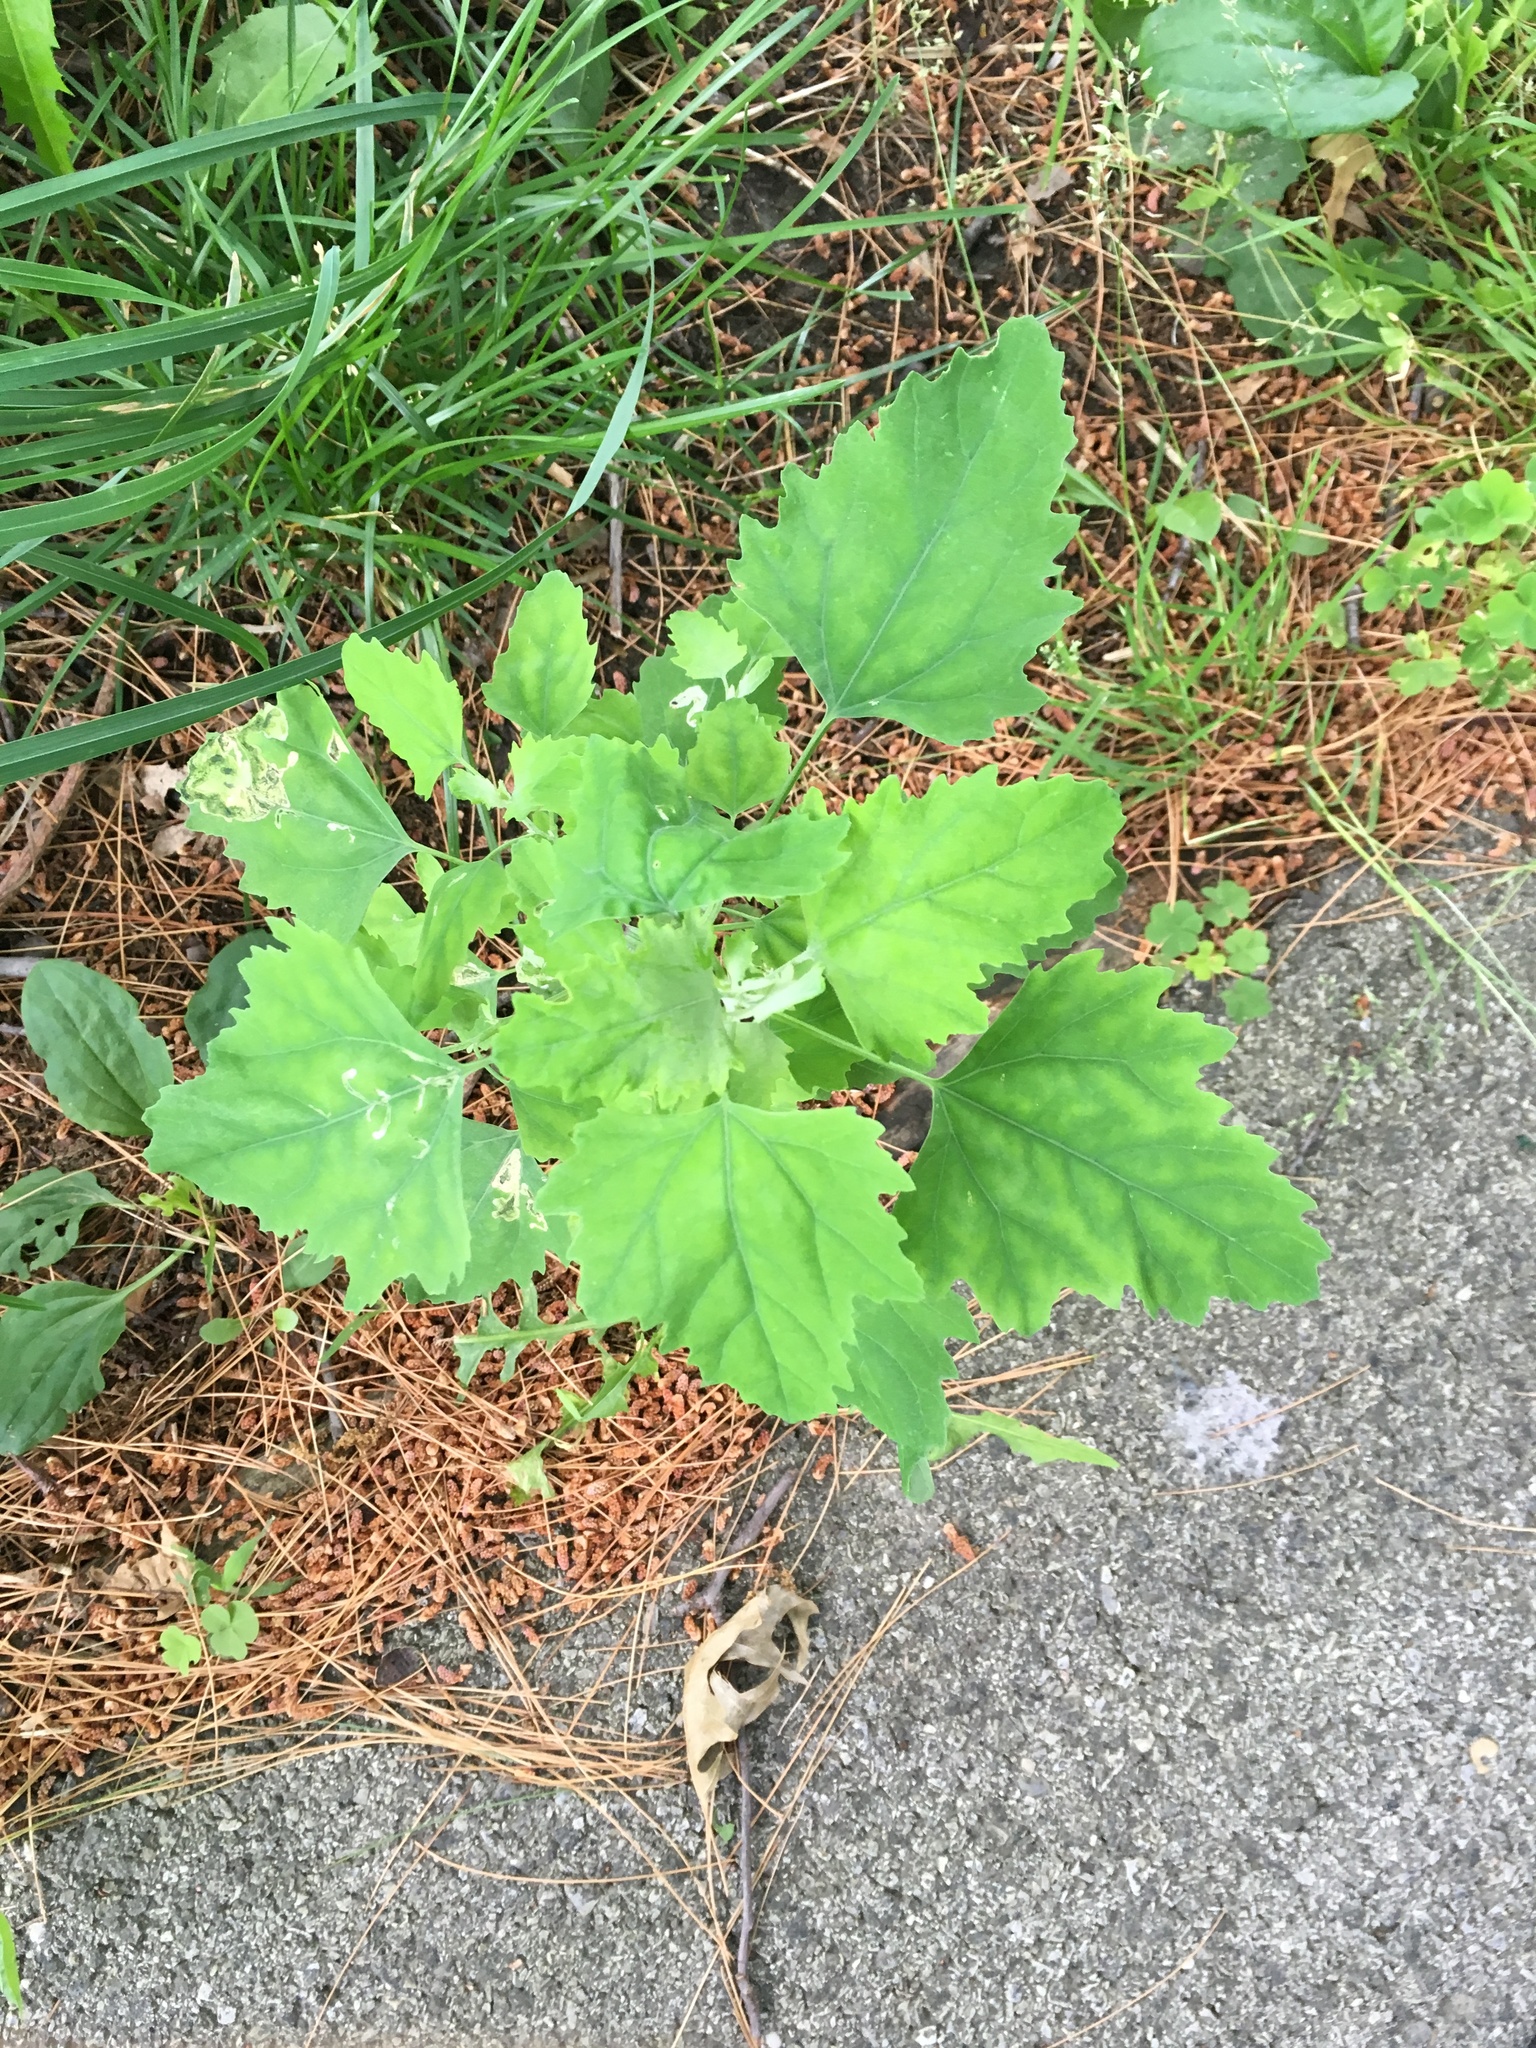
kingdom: Plantae
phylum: Tracheophyta
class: Magnoliopsida
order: Caryophyllales
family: Amaranthaceae
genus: Chenopodium
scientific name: Chenopodium album
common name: Fat-hen
